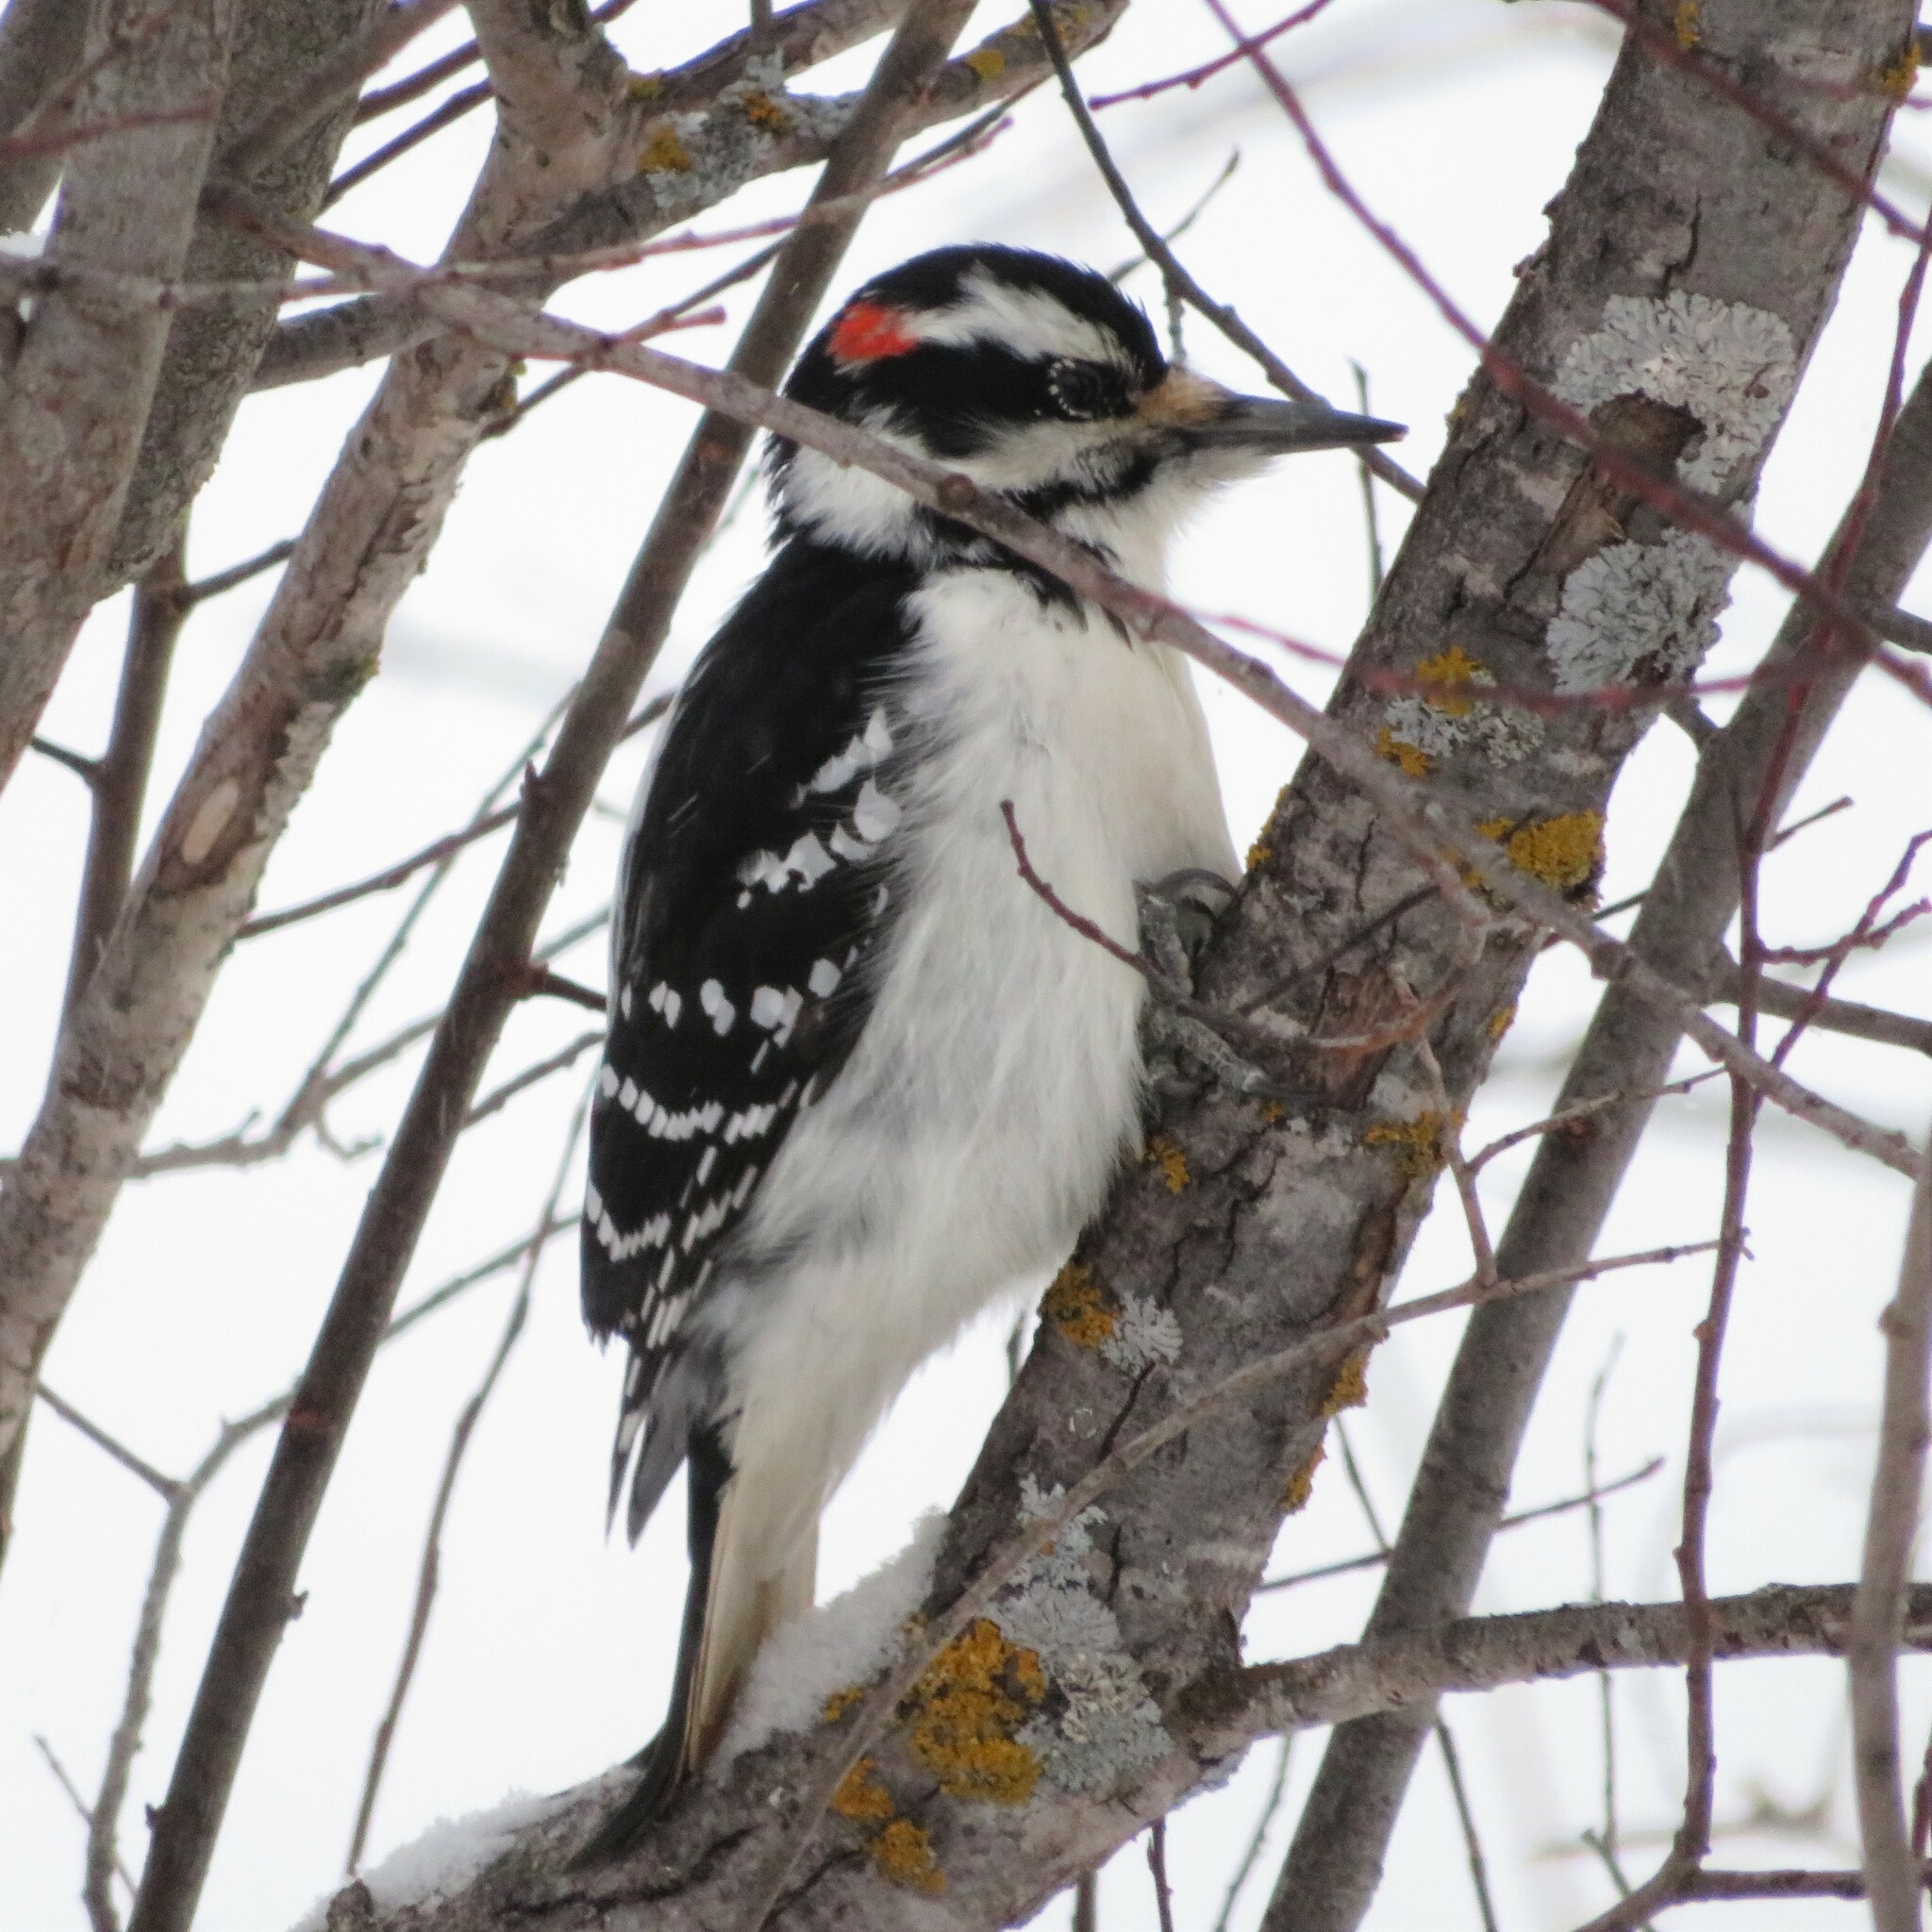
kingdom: Animalia
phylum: Chordata
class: Aves
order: Piciformes
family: Picidae
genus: Leuconotopicus
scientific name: Leuconotopicus villosus
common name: Hairy woodpecker
